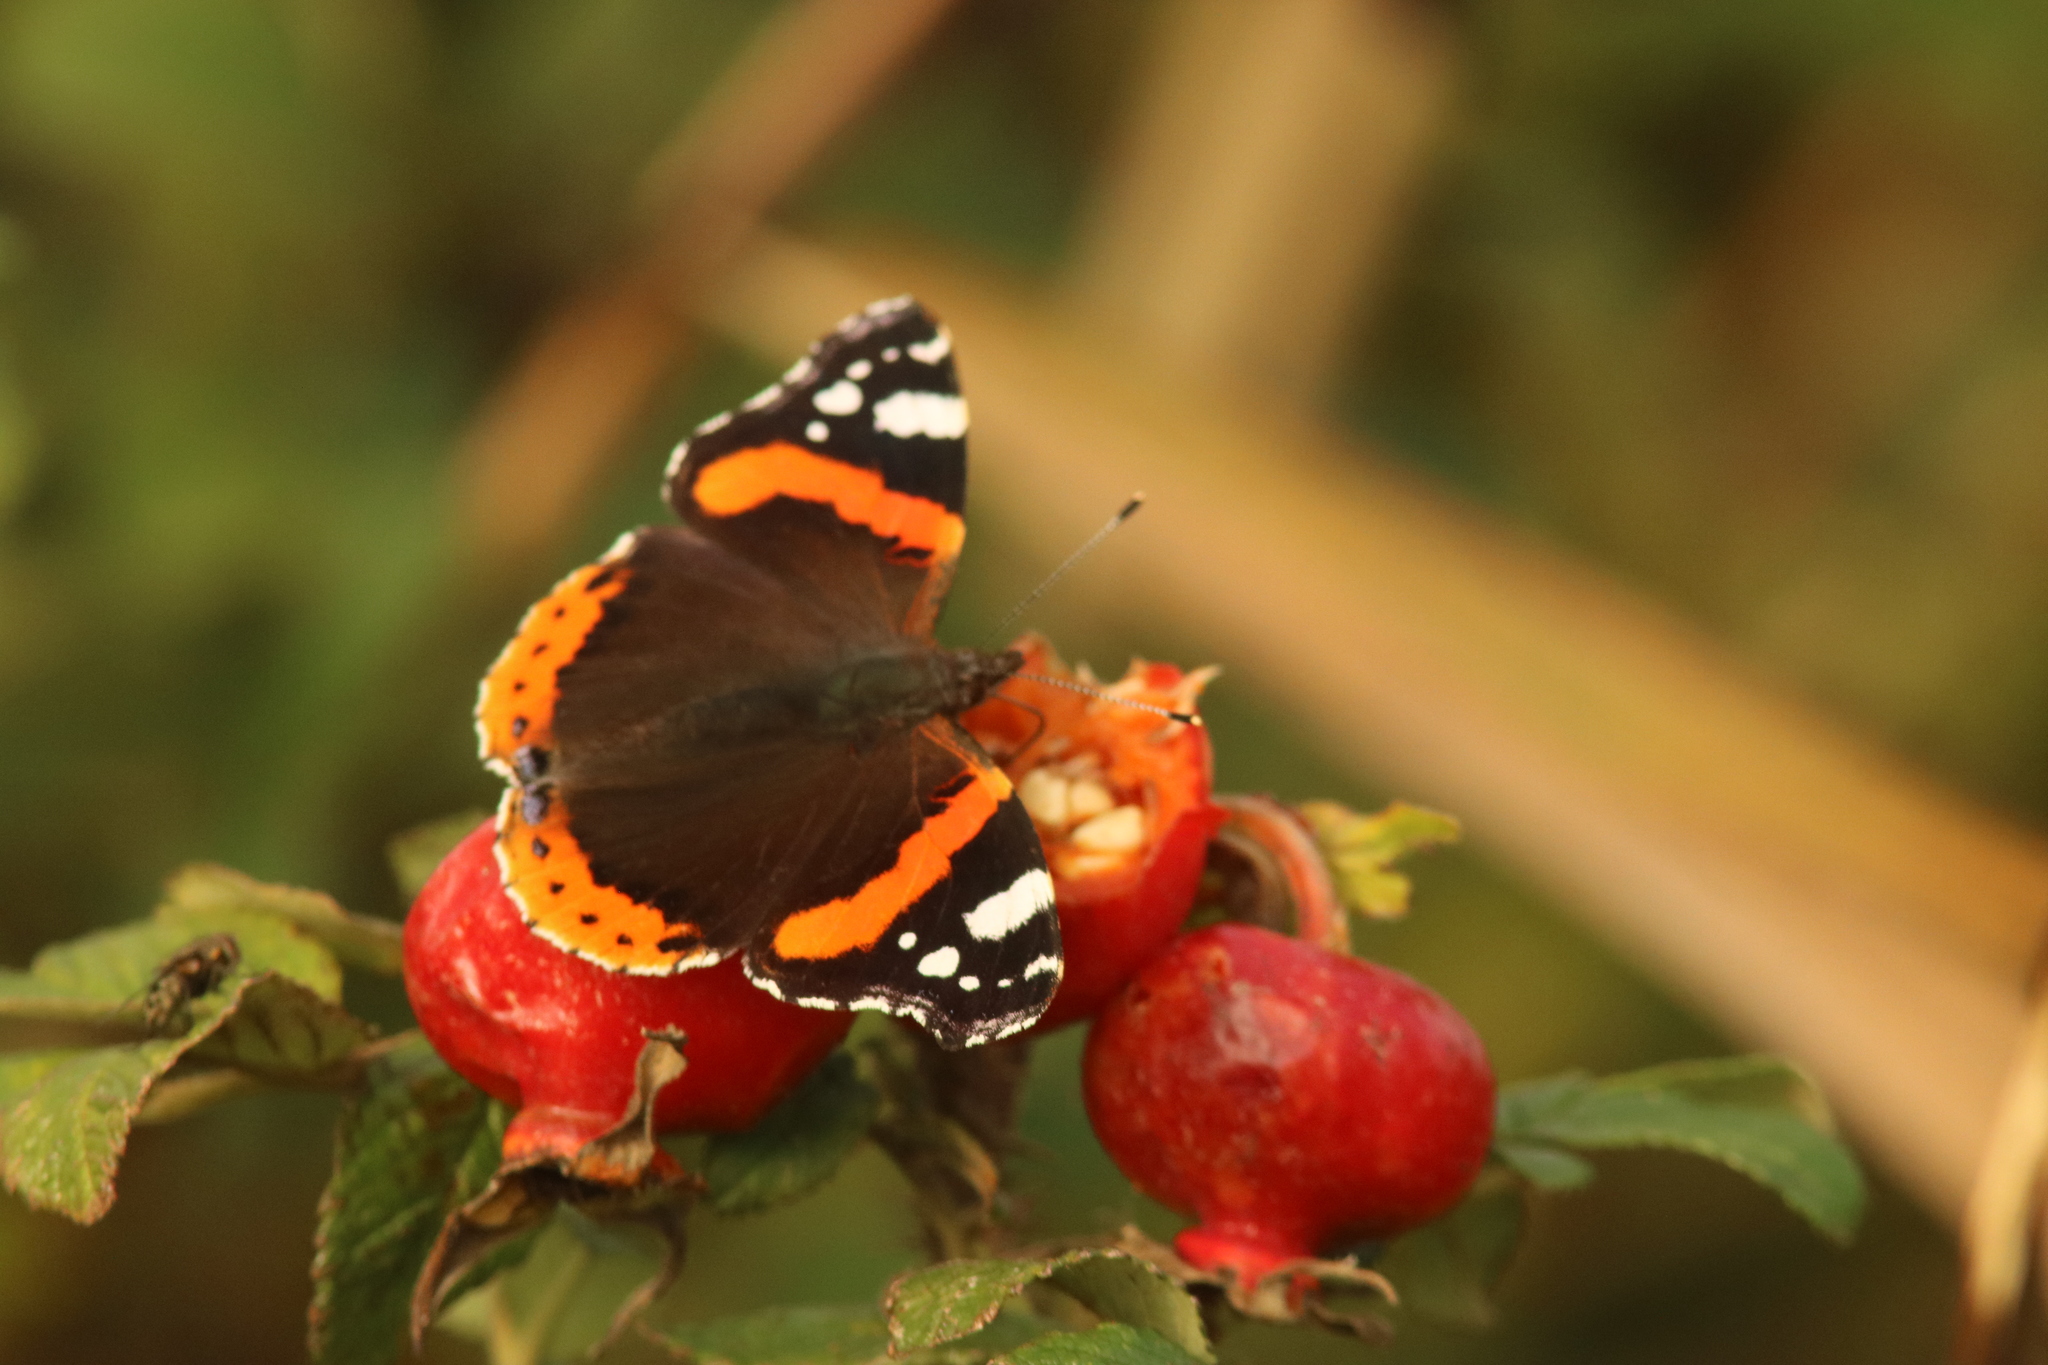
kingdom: Animalia
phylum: Arthropoda
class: Insecta
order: Lepidoptera
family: Nymphalidae
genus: Vanessa
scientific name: Vanessa atalanta
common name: Red admiral
